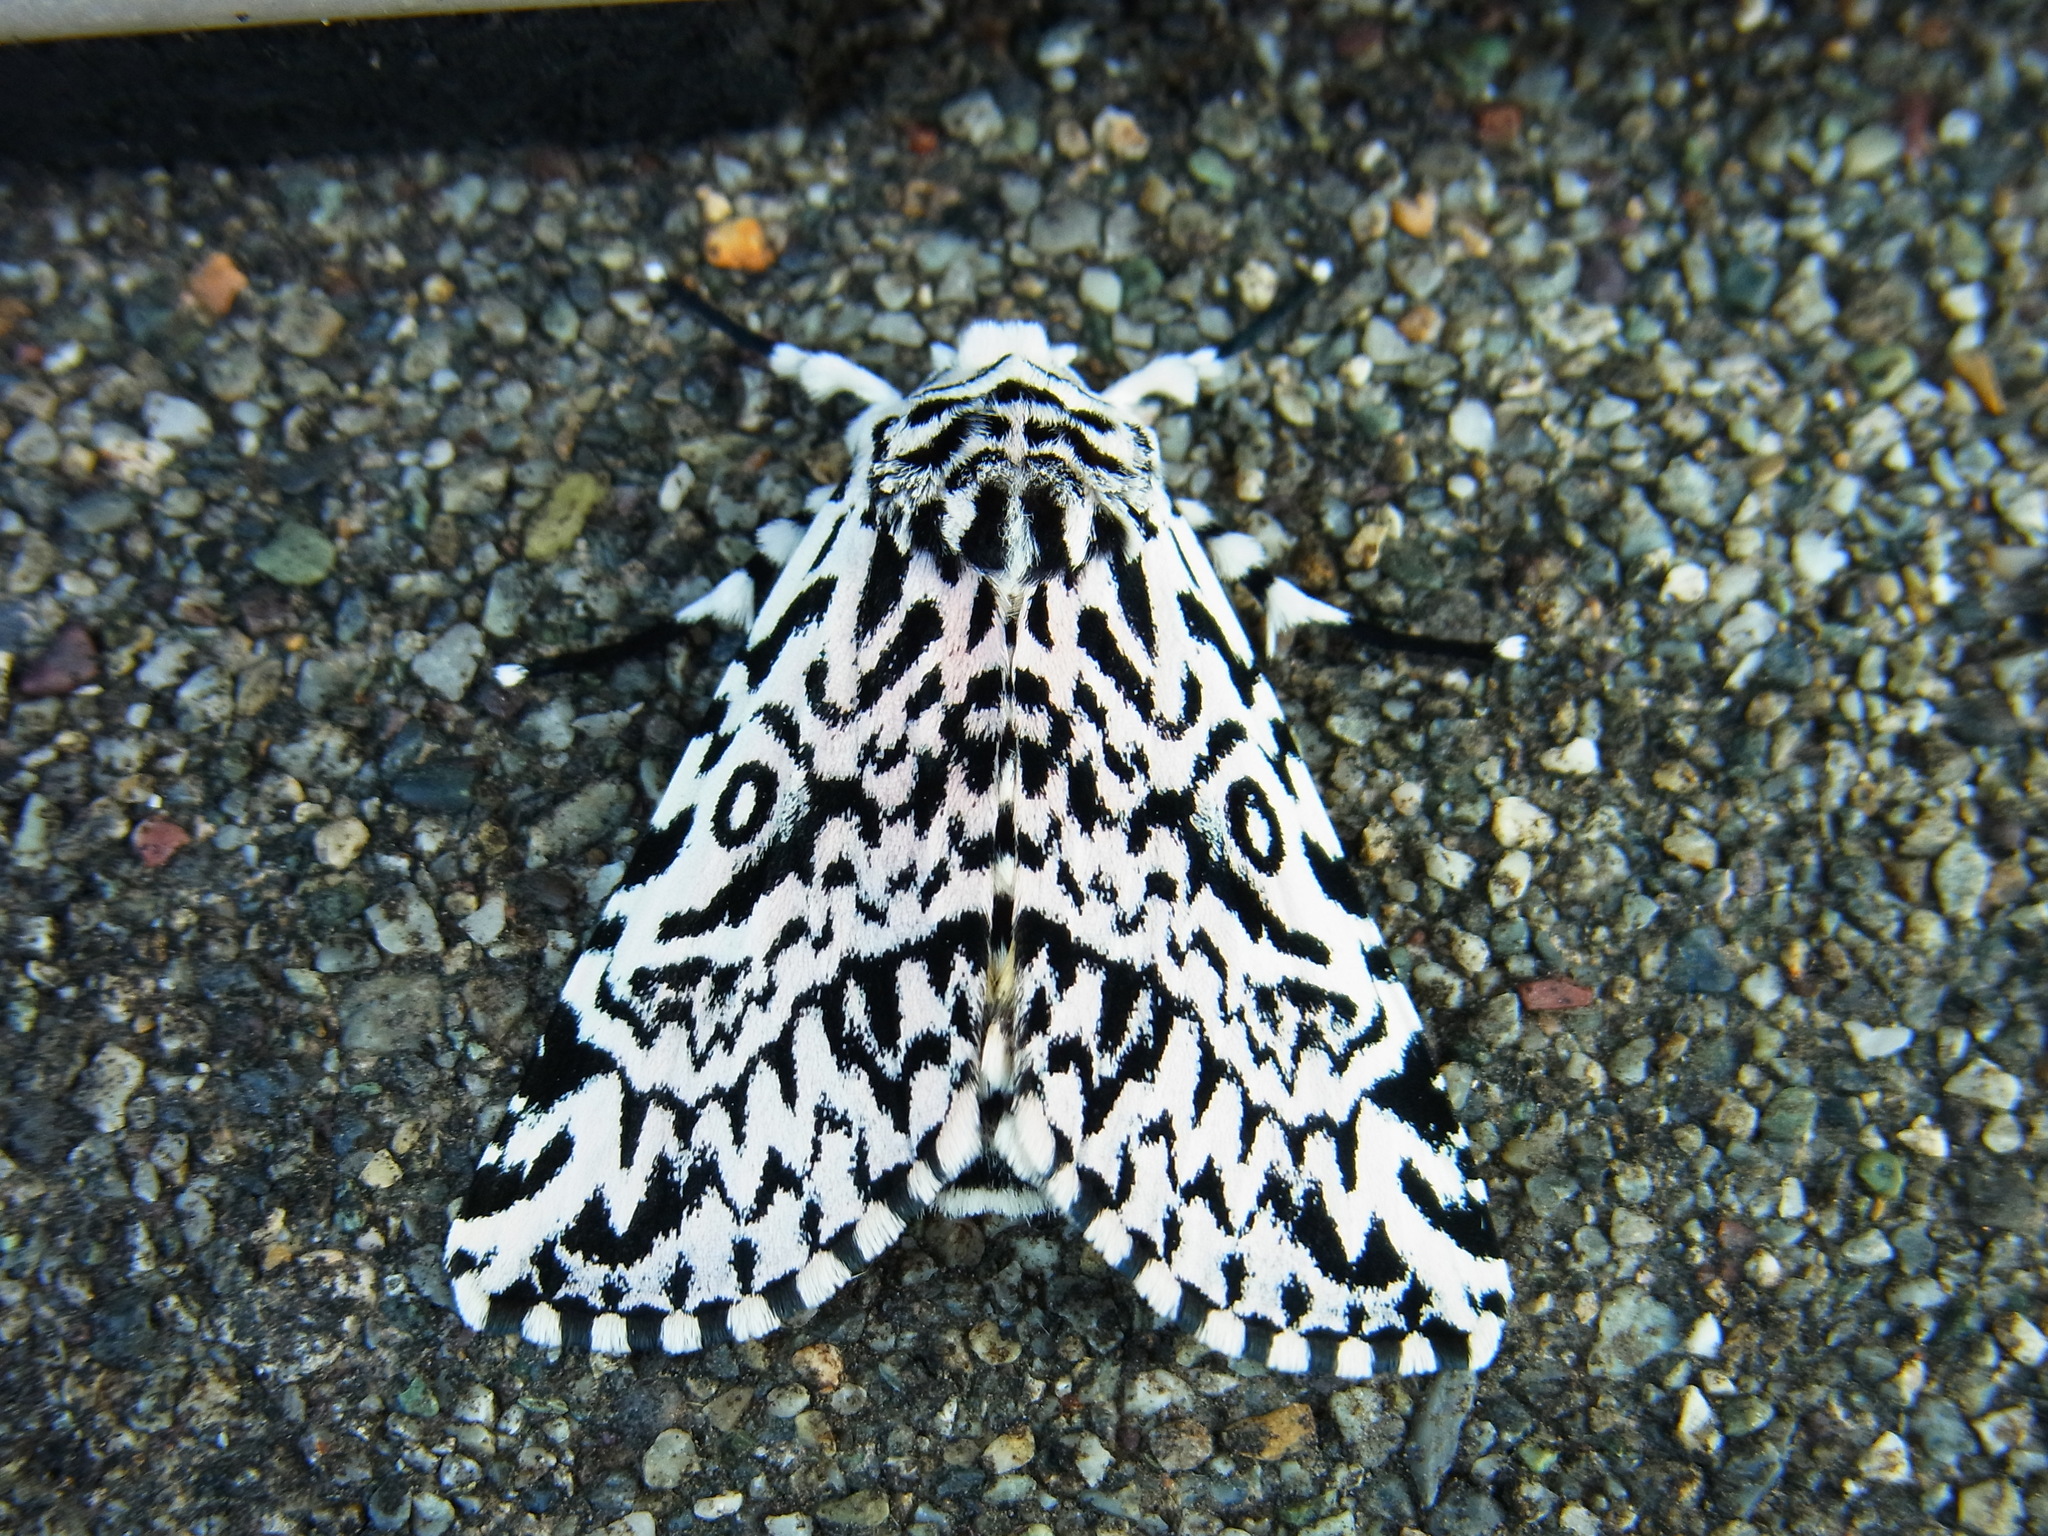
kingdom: Animalia
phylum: Arthropoda
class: Insecta
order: Lepidoptera
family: Noctuidae
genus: Trichosea
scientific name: Trichosea champa
